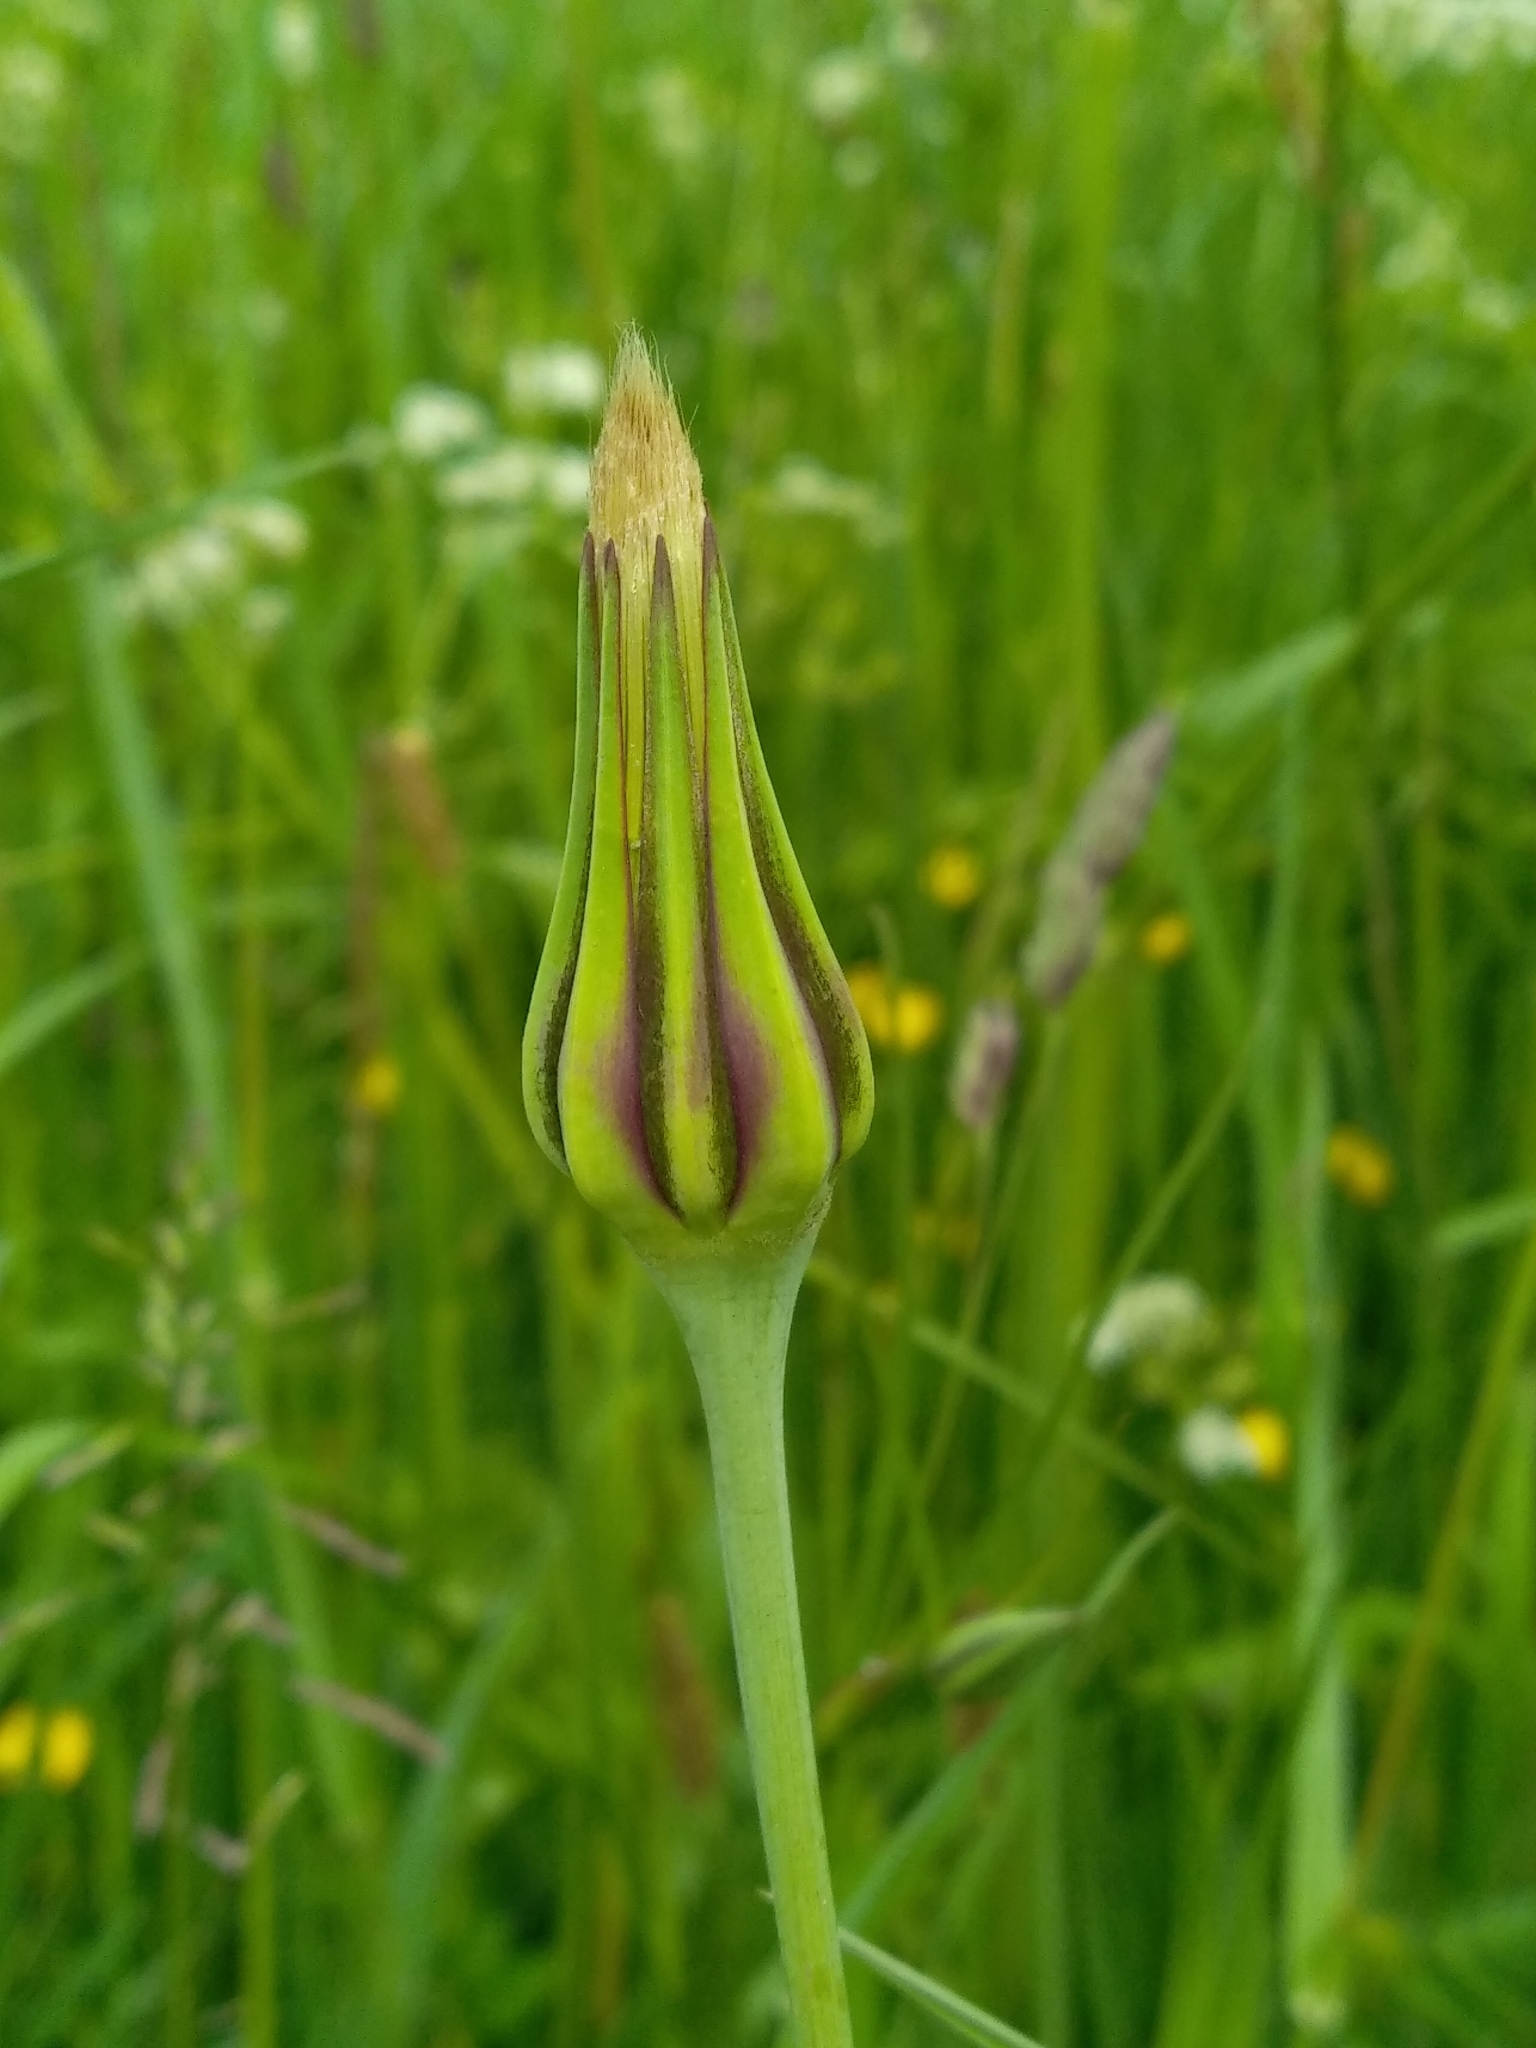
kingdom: Plantae
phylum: Tracheophyta
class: Magnoliopsida
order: Asterales
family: Asteraceae
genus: Tragopogon
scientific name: Tragopogon pratensis
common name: Goat's-beard
